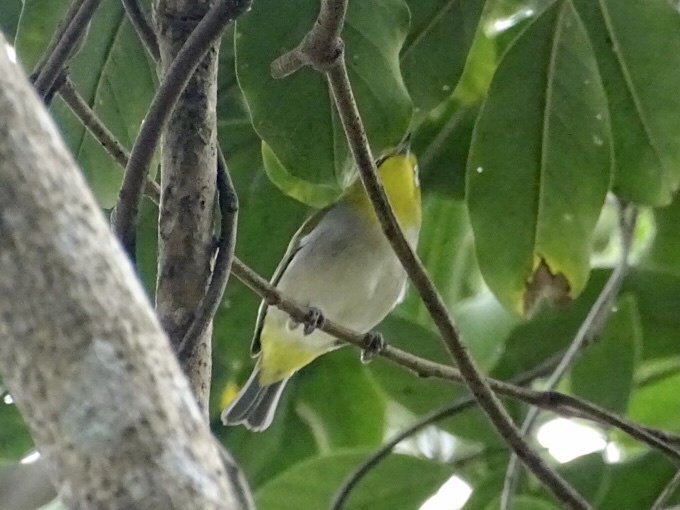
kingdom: Animalia
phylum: Chordata
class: Aves
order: Passeriformes
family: Zosteropidae
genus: Zosterops
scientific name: Zosterops simplex
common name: Swinhoe's white-eye
